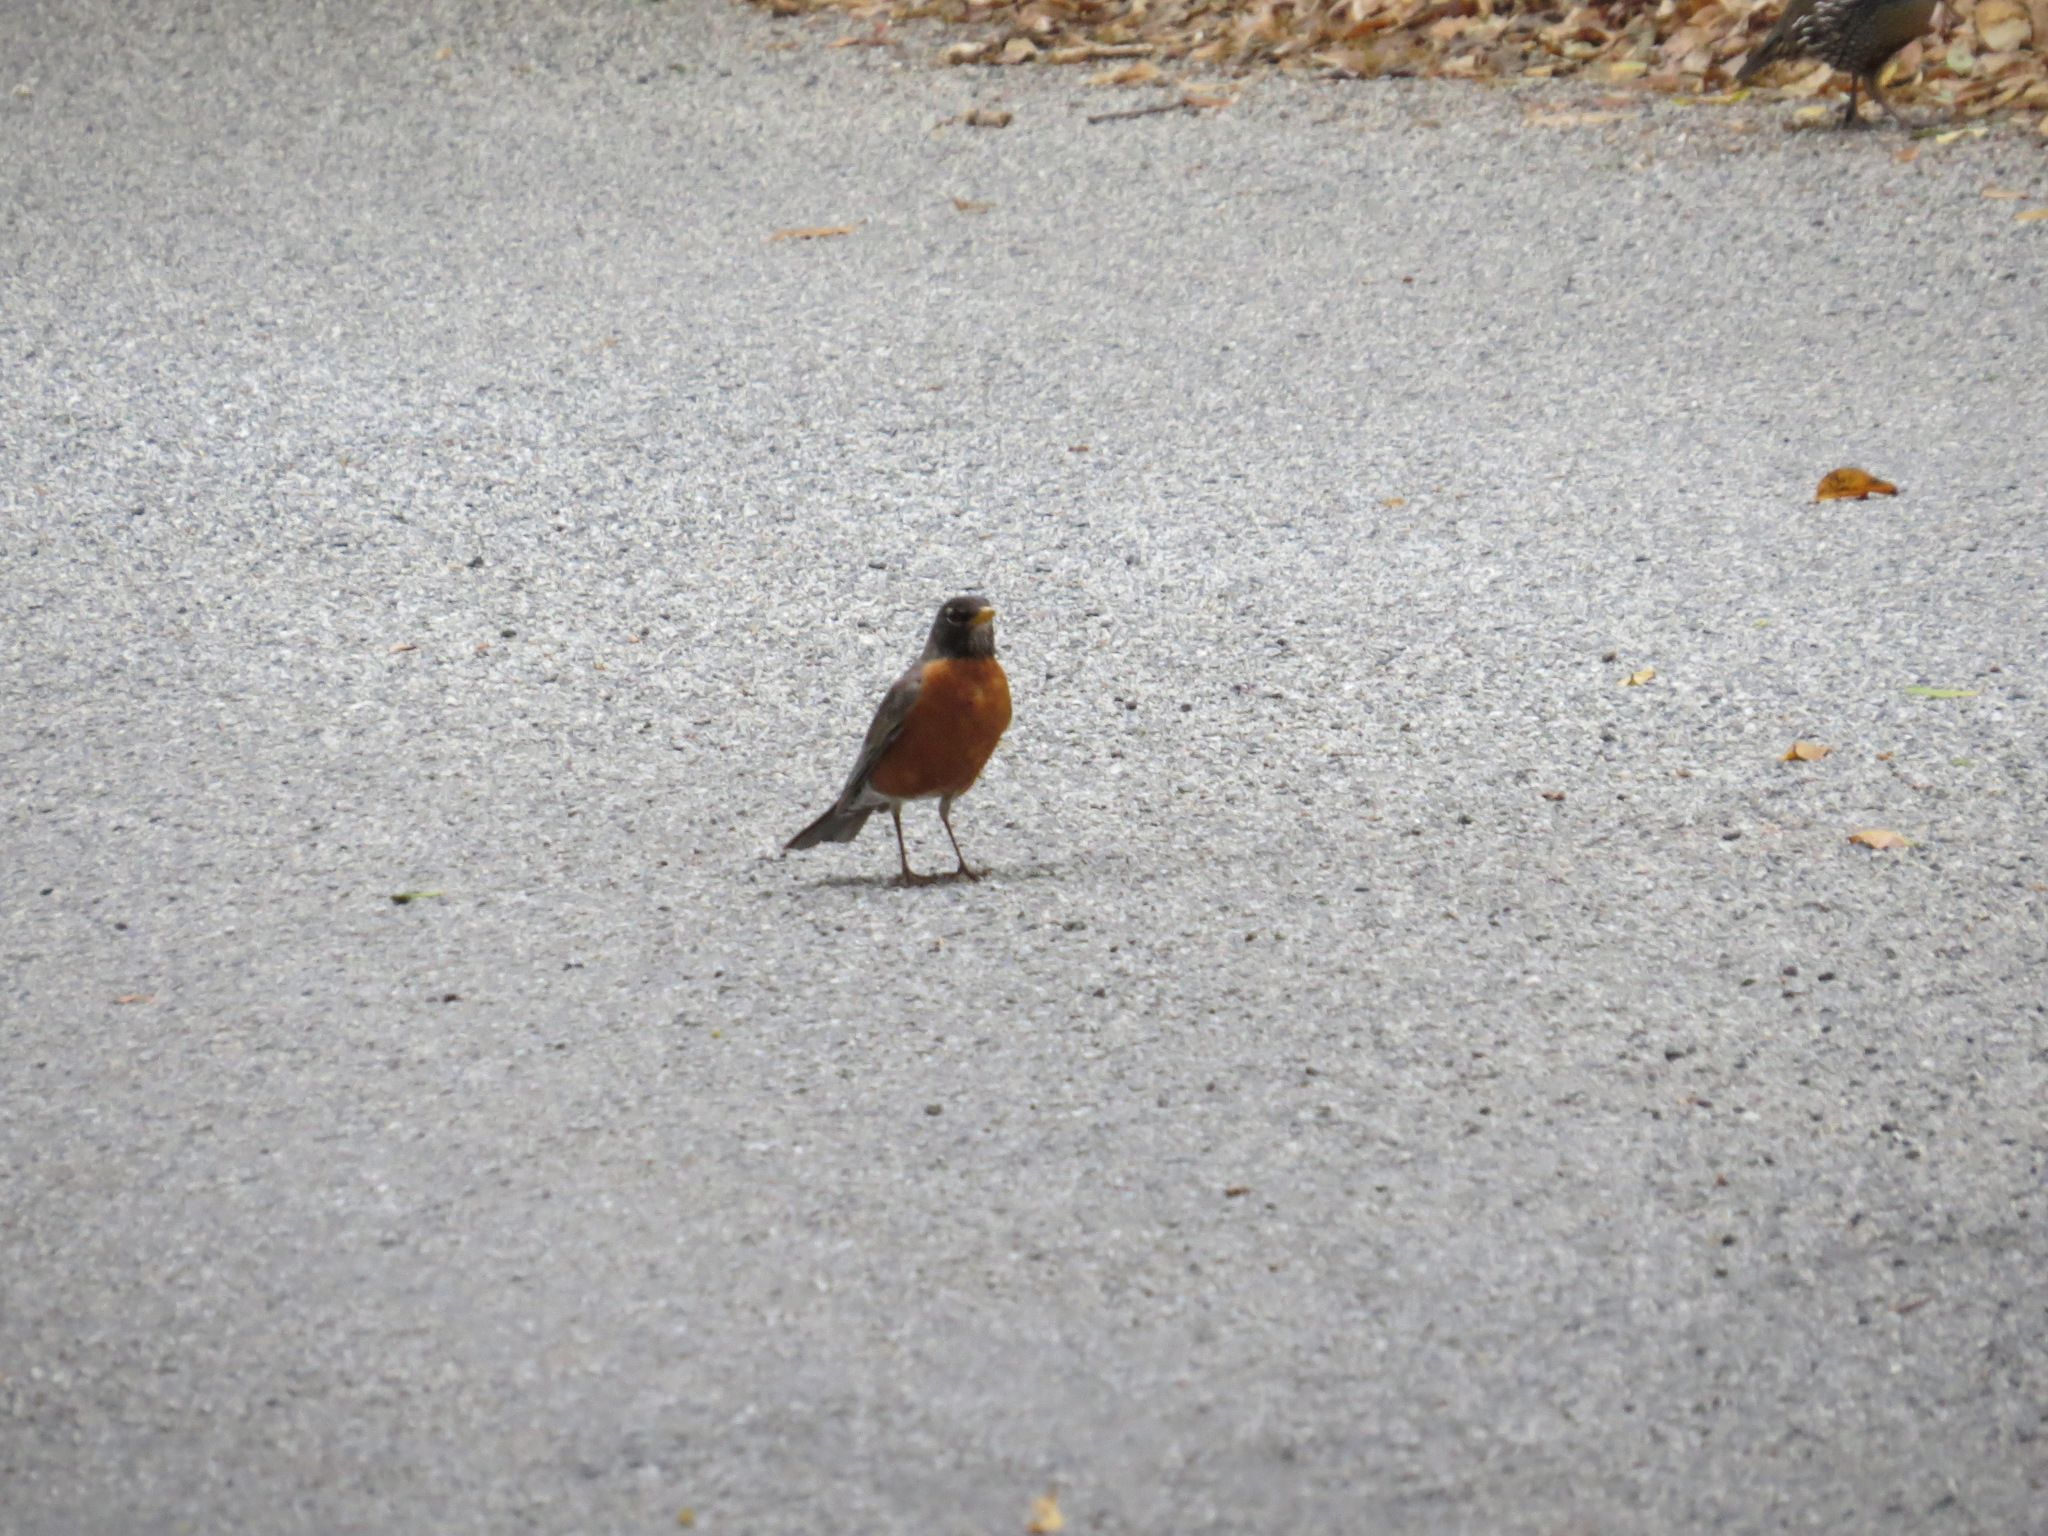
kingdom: Animalia
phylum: Chordata
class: Aves
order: Passeriformes
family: Turdidae
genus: Turdus
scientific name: Turdus migratorius
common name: American robin
